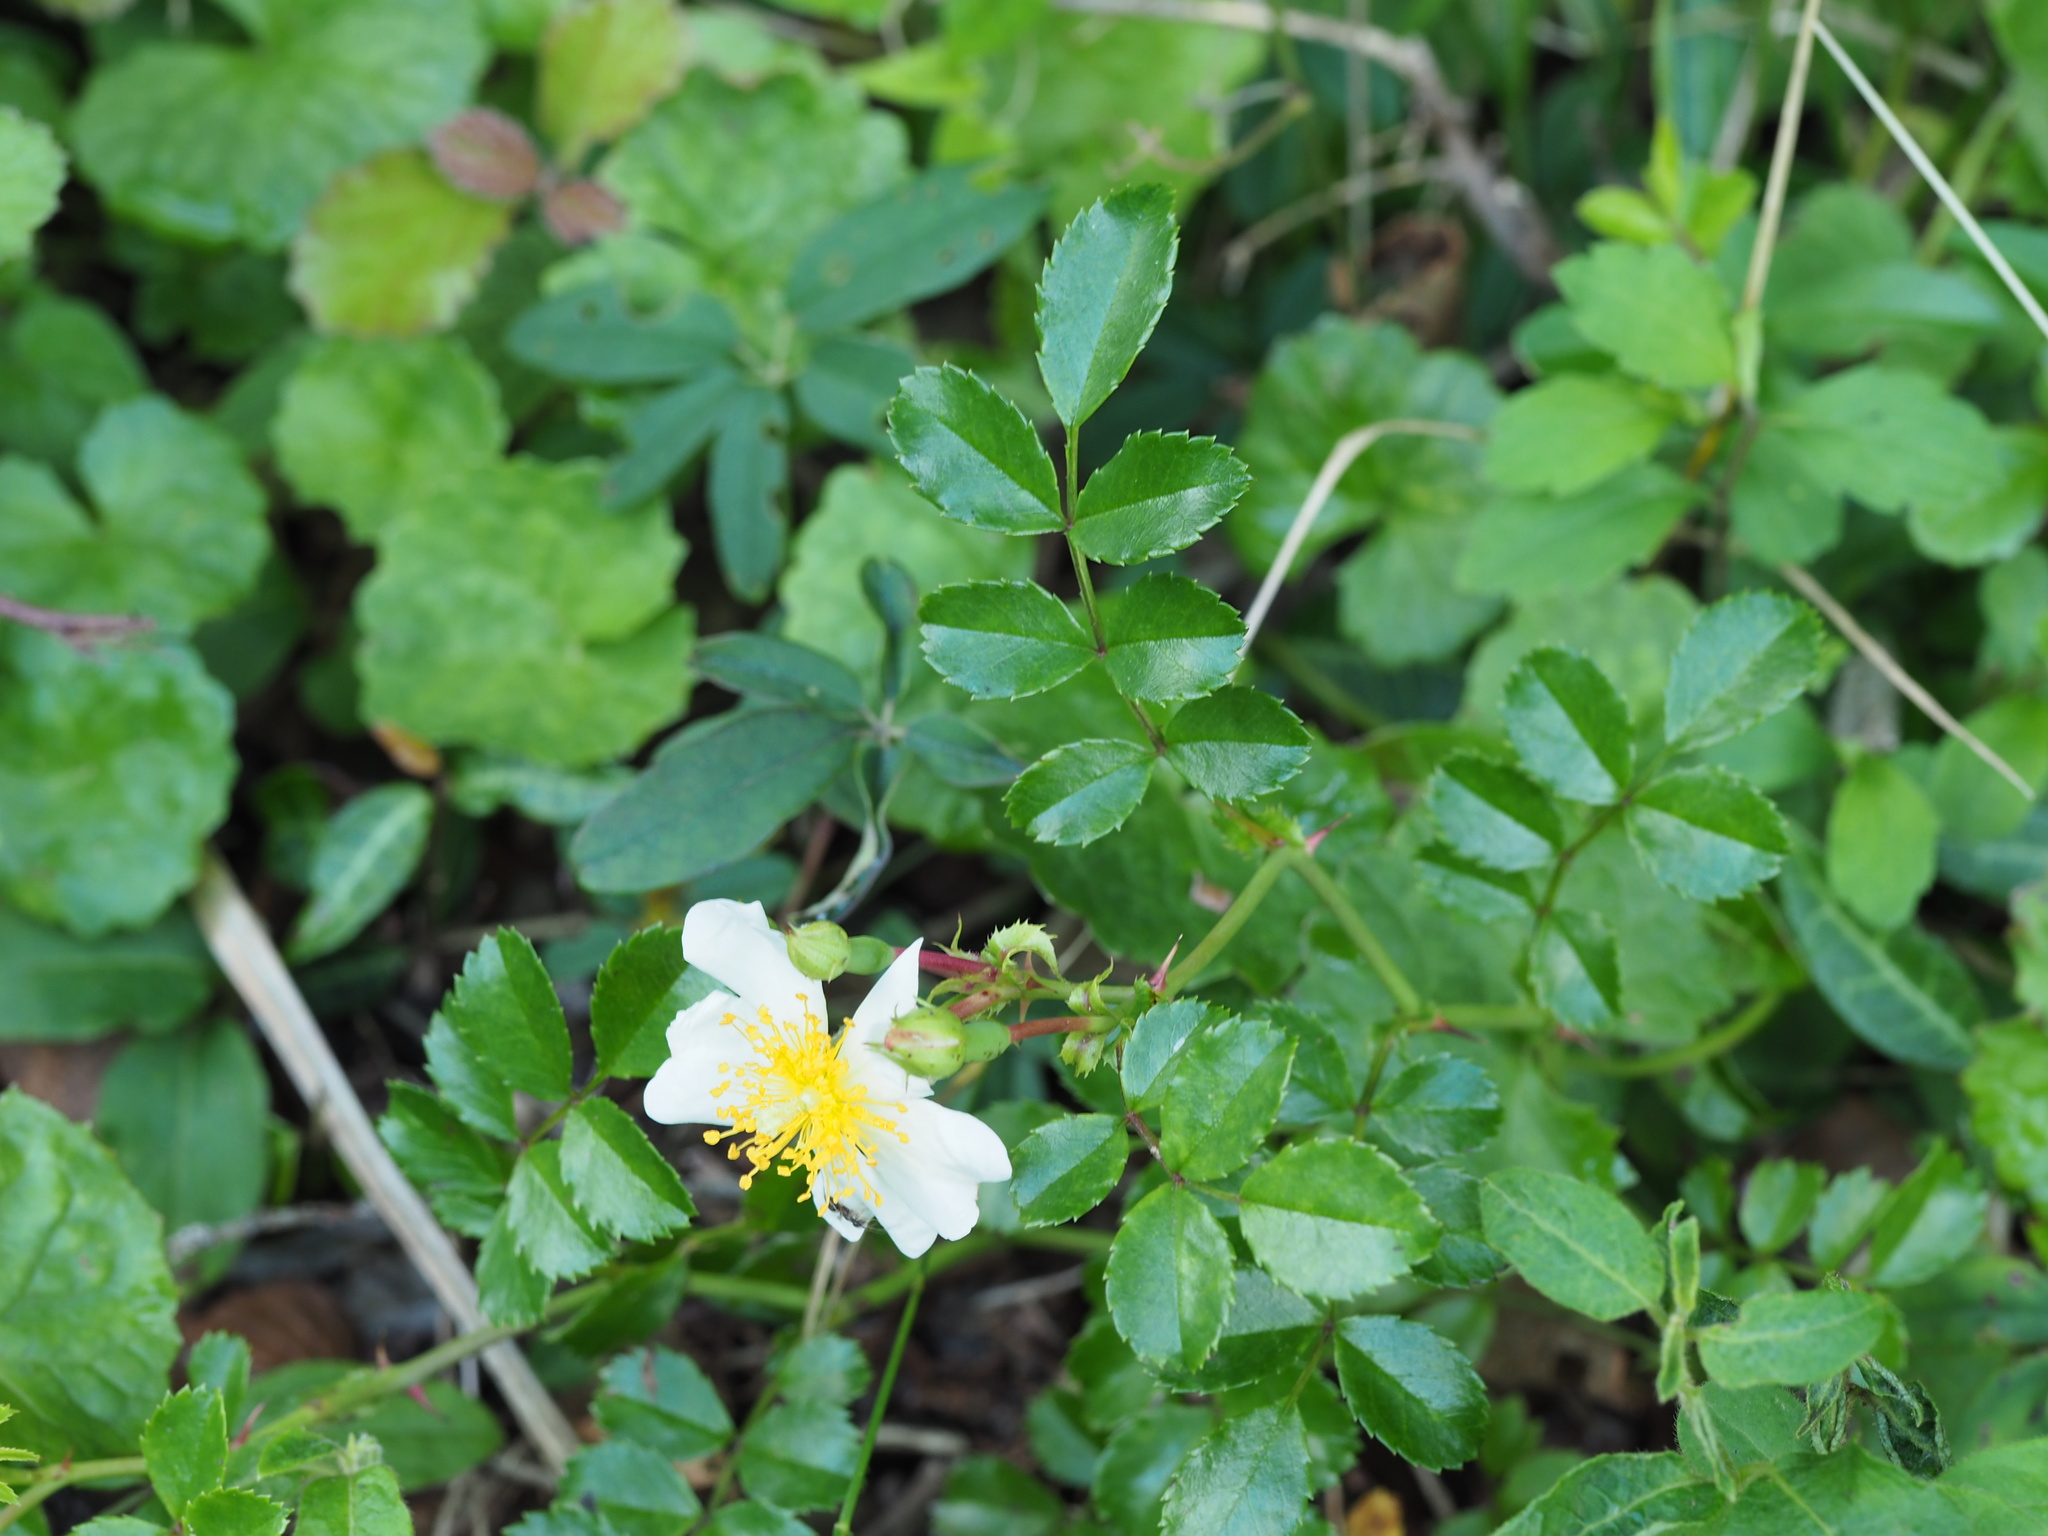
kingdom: Plantae
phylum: Tracheophyta
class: Magnoliopsida
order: Rosales
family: Rosaceae
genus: Rosa
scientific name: Rosa lucieae
